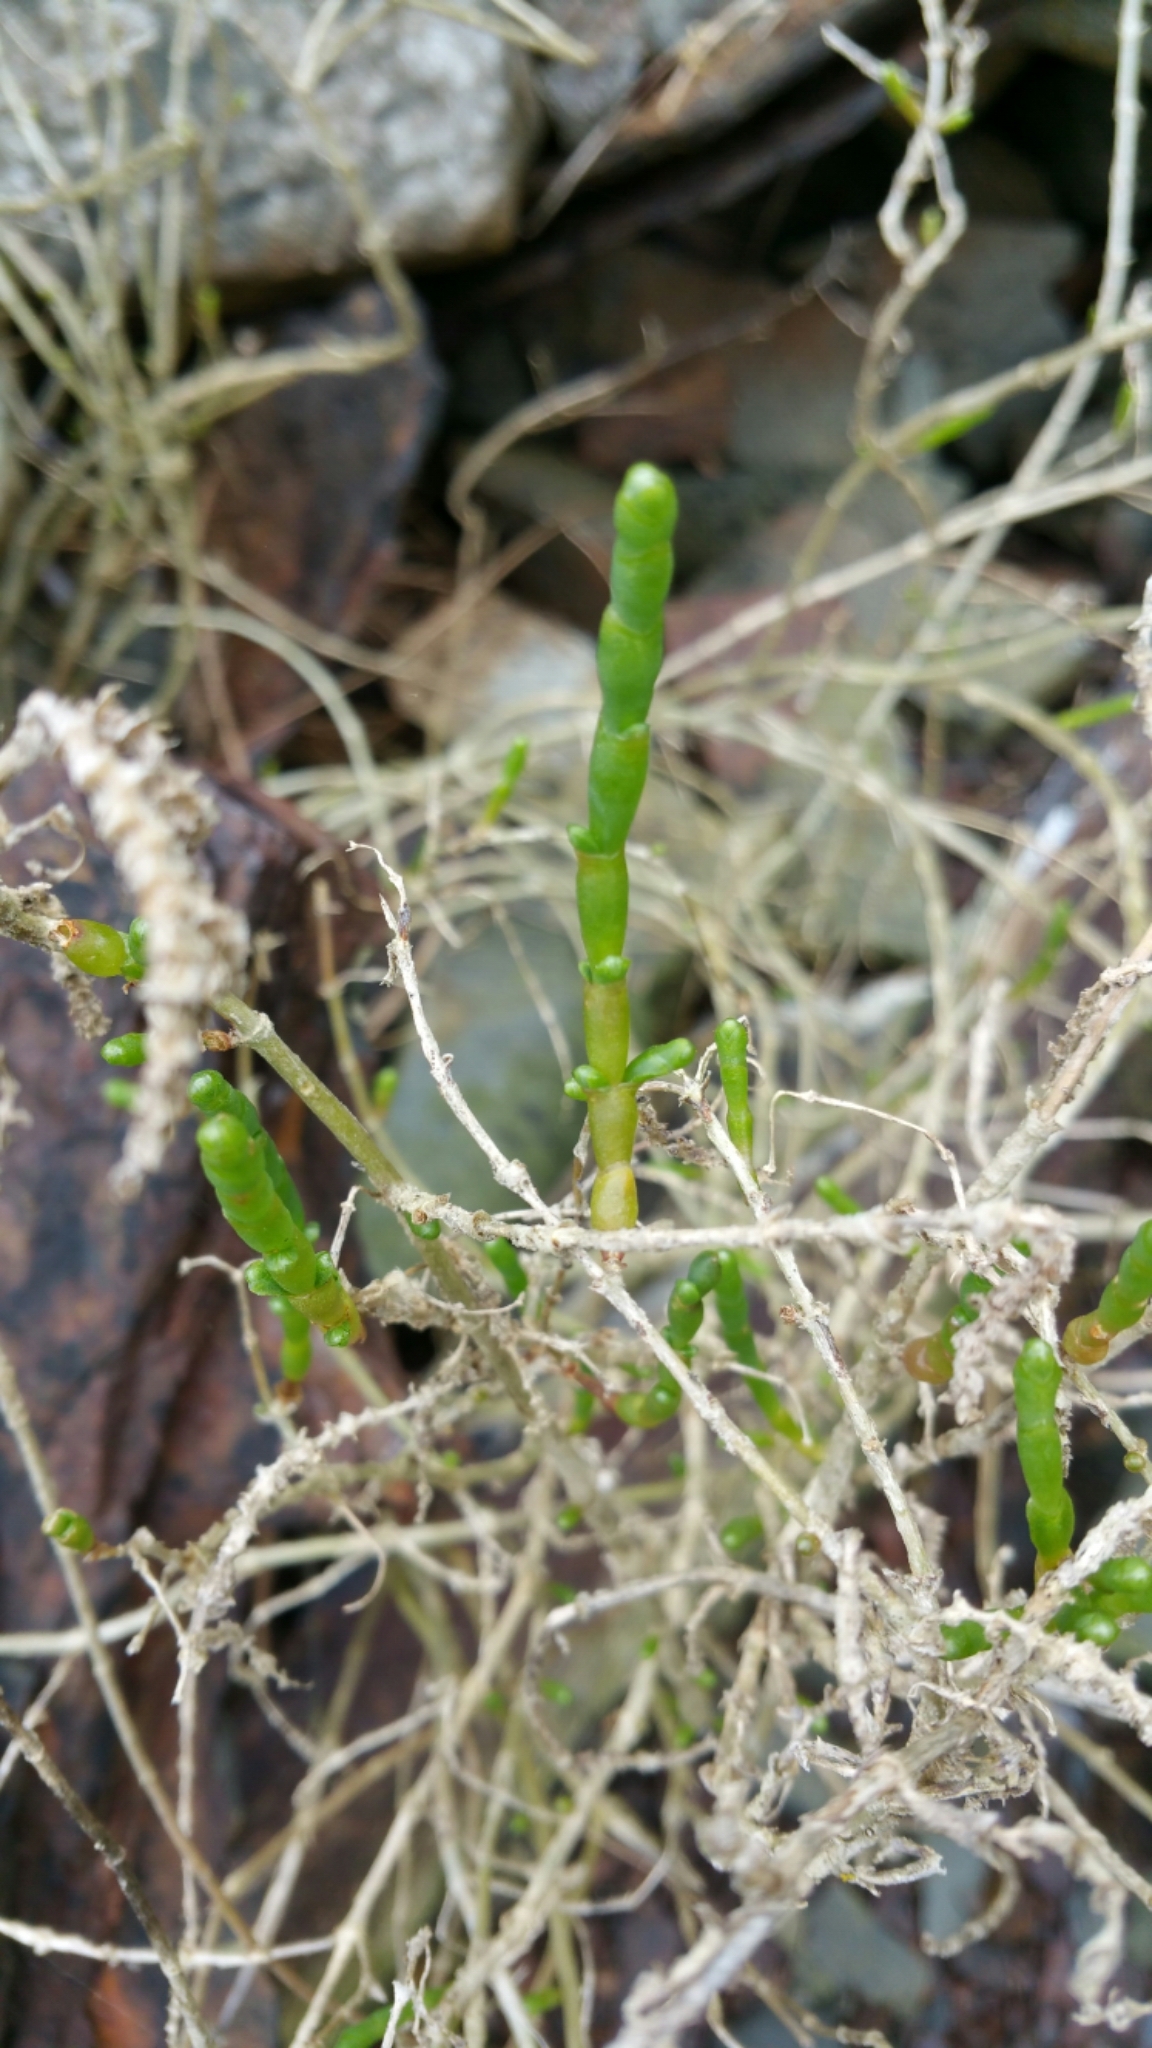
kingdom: Plantae
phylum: Tracheophyta
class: Magnoliopsida
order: Caryophyllales
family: Amaranthaceae
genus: Salicornia
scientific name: Salicornia pacifica
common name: Pacific glasswort
